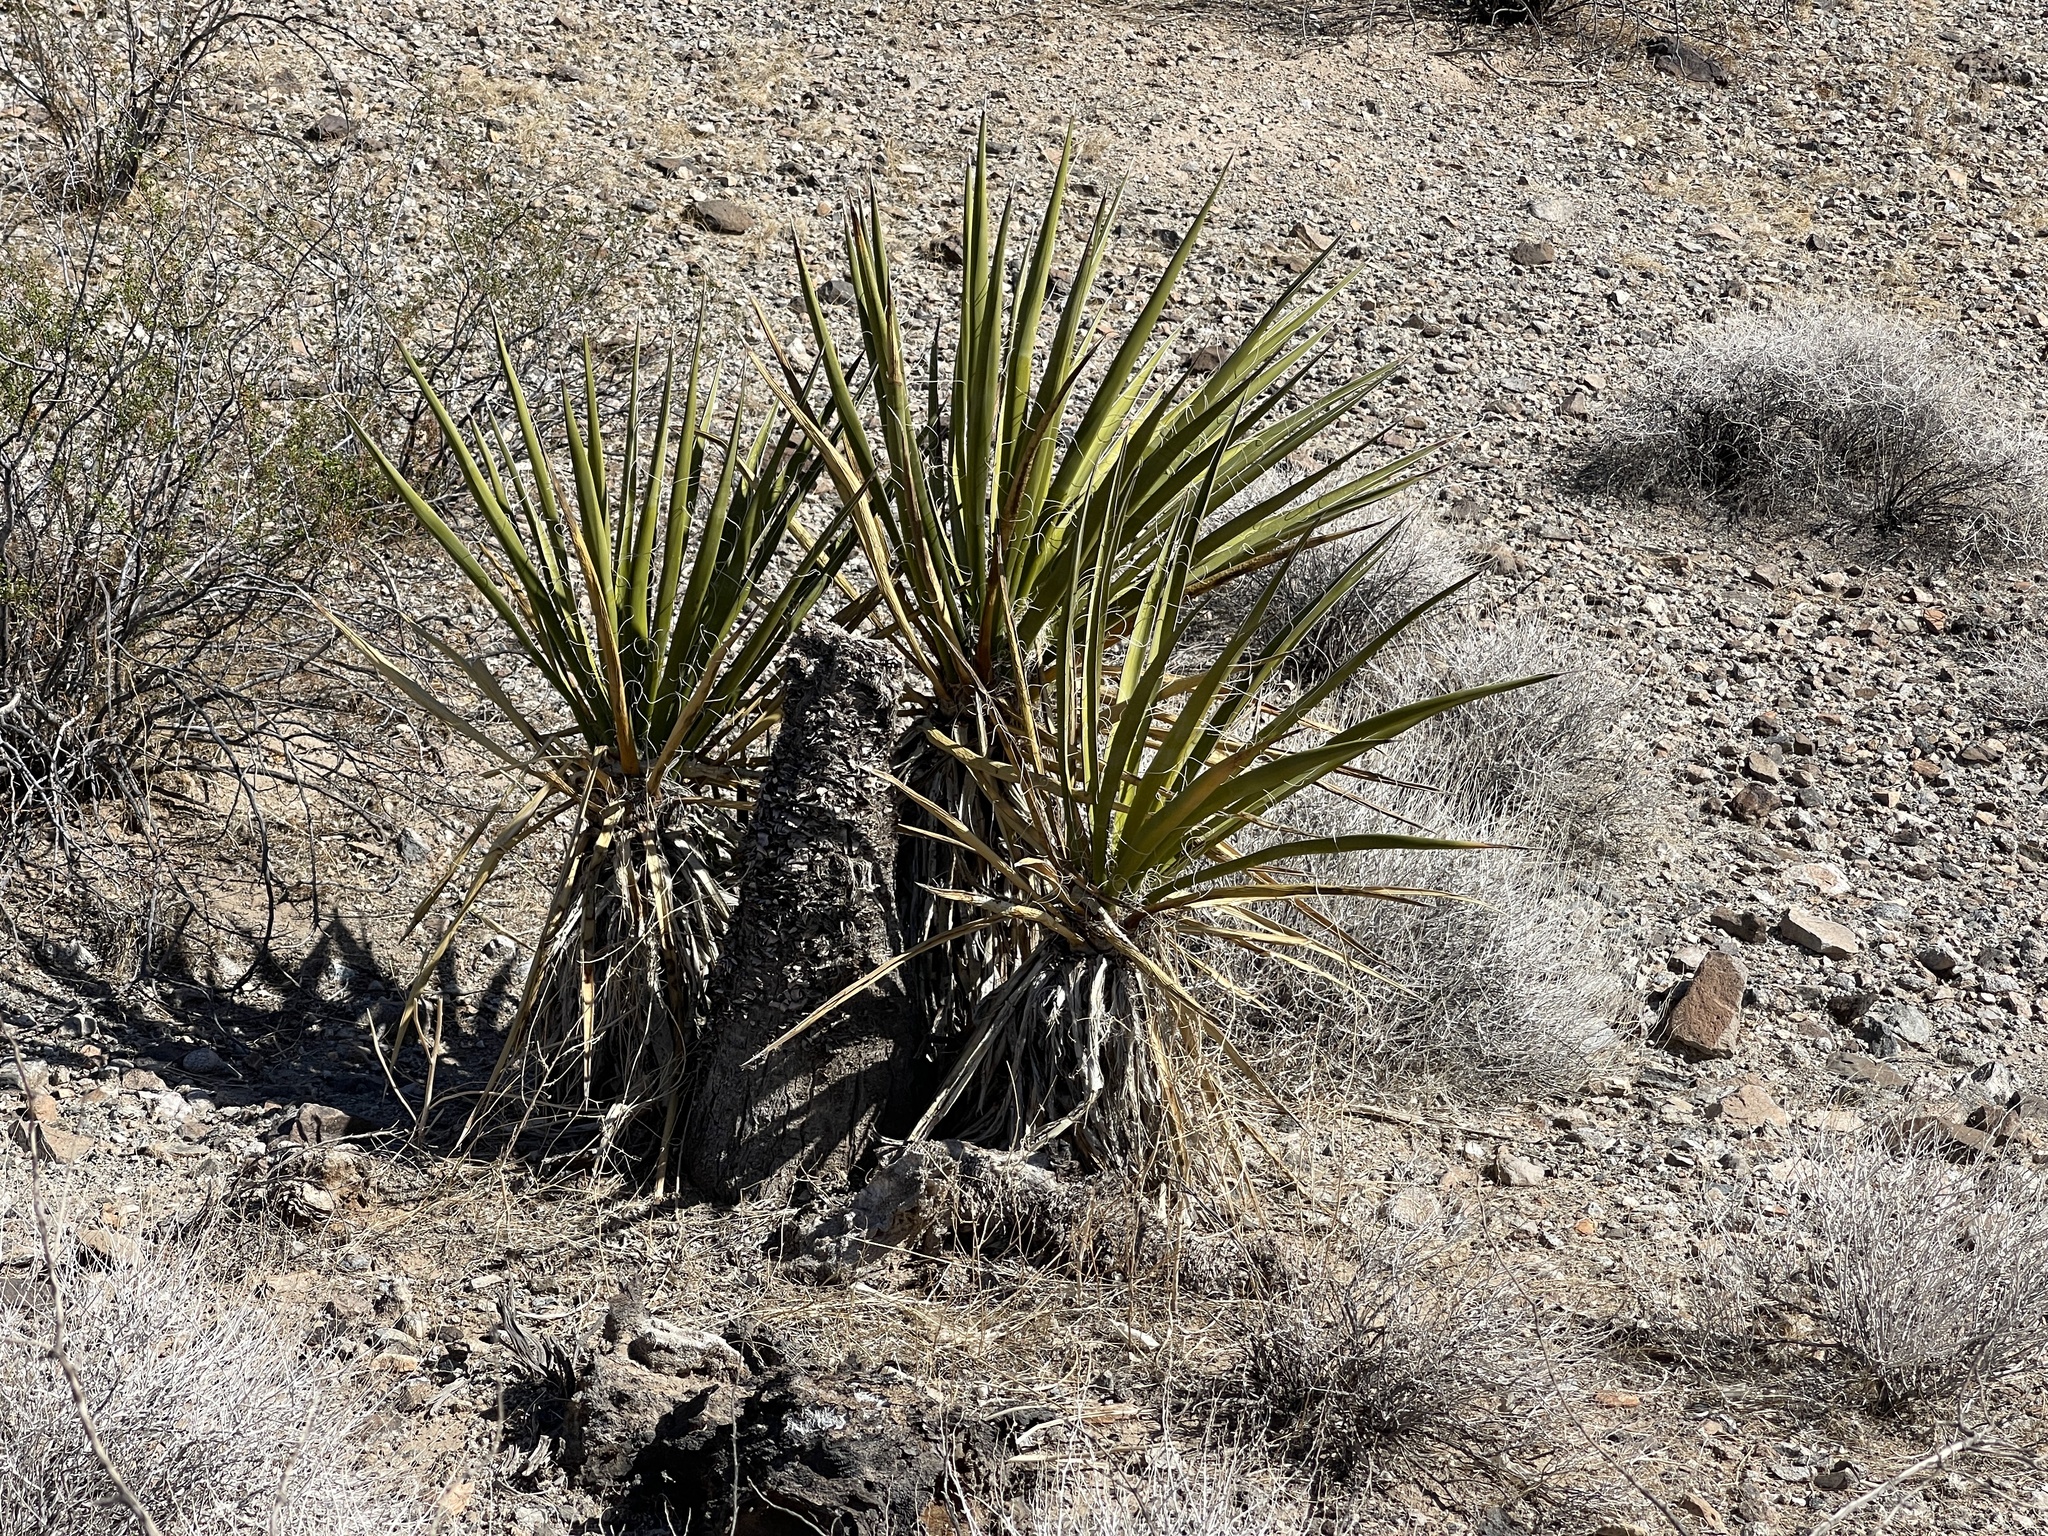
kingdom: Plantae
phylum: Tracheophyta
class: Liliopsida
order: Asparagales
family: Asparagaceae
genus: Yucca
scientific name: Yucca schidigera
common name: Mojave yucca
